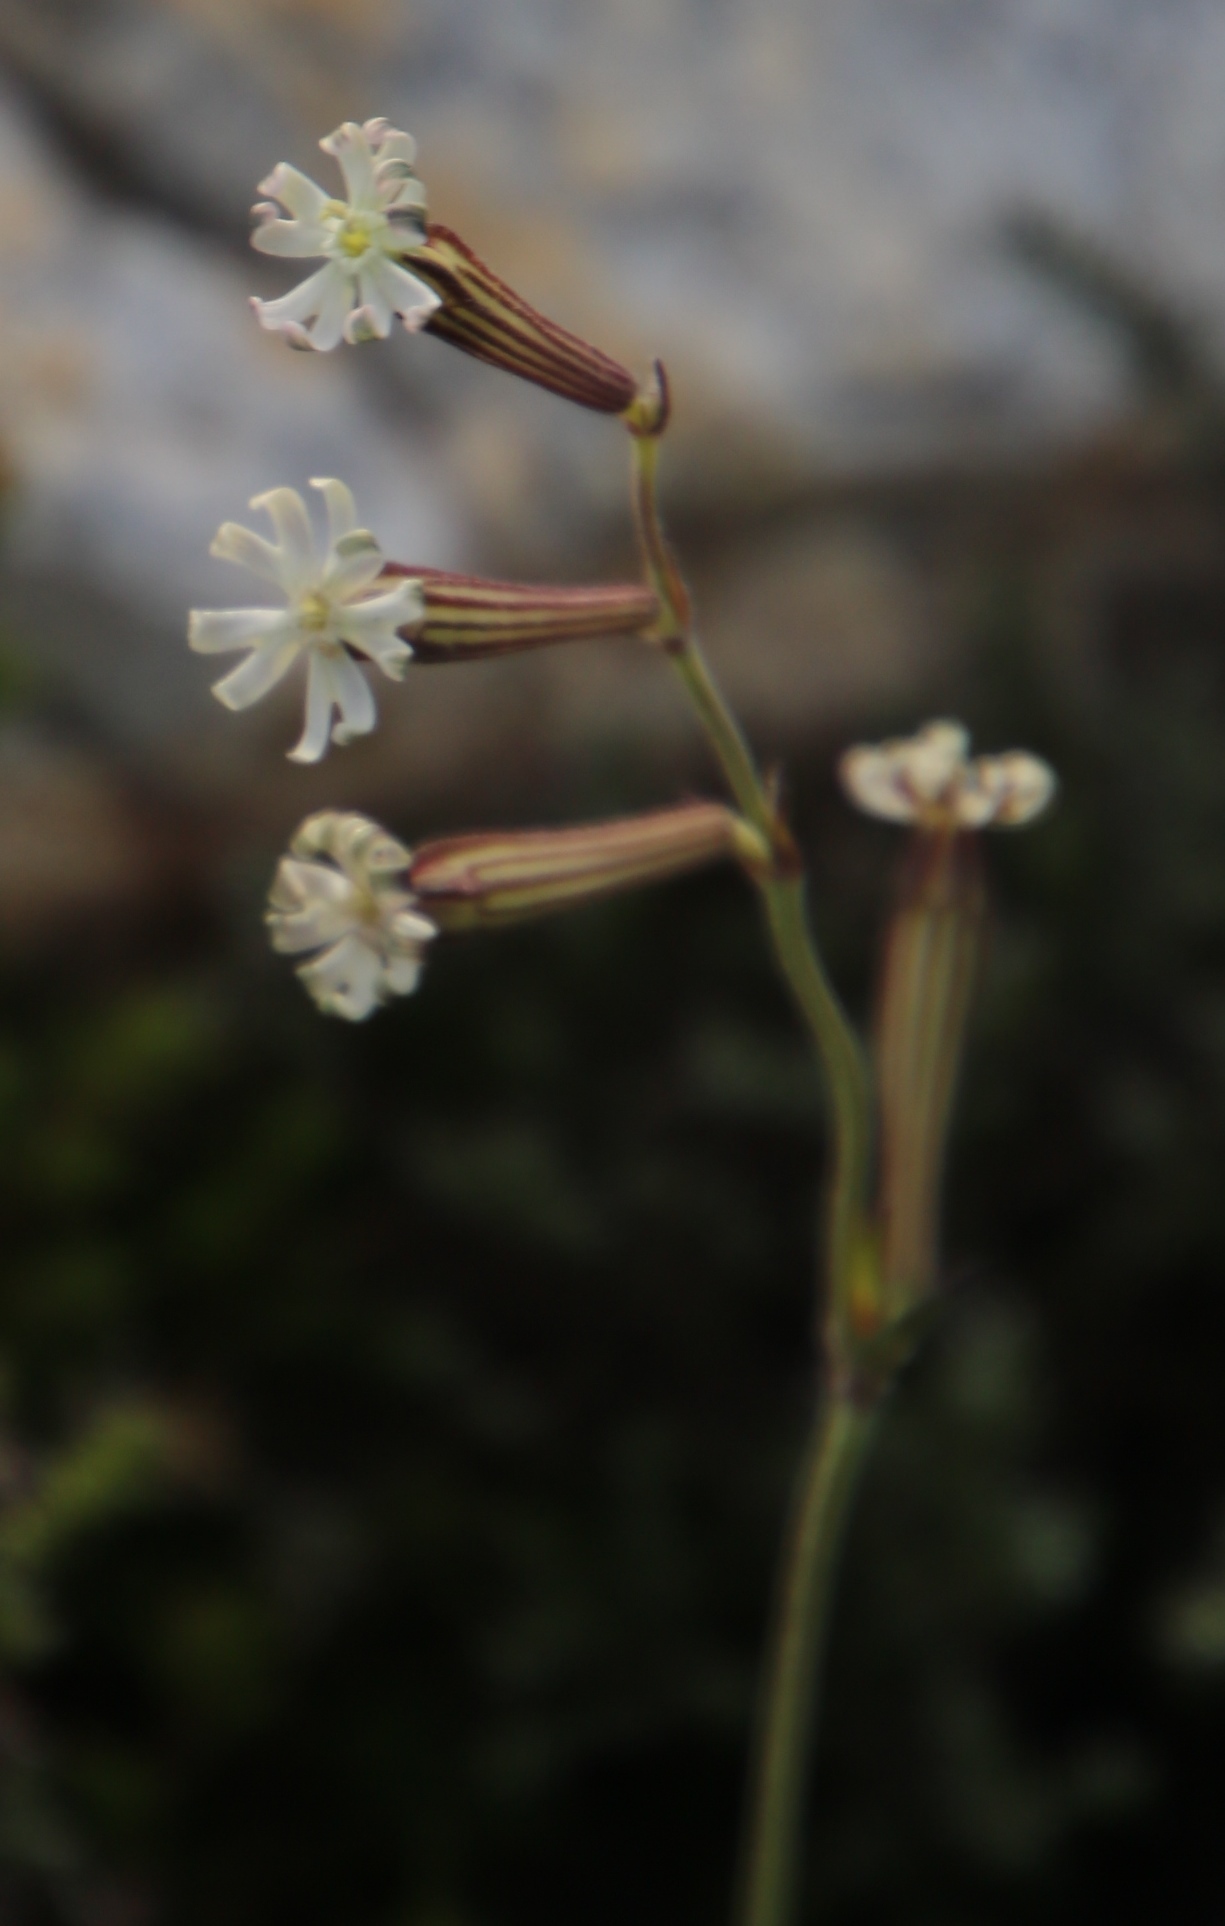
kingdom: Plantae
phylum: Tracheophyta
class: Magnoliopsida
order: Caryophyllales
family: Caryophyllaceae
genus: Silene
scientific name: Silene burchellii
